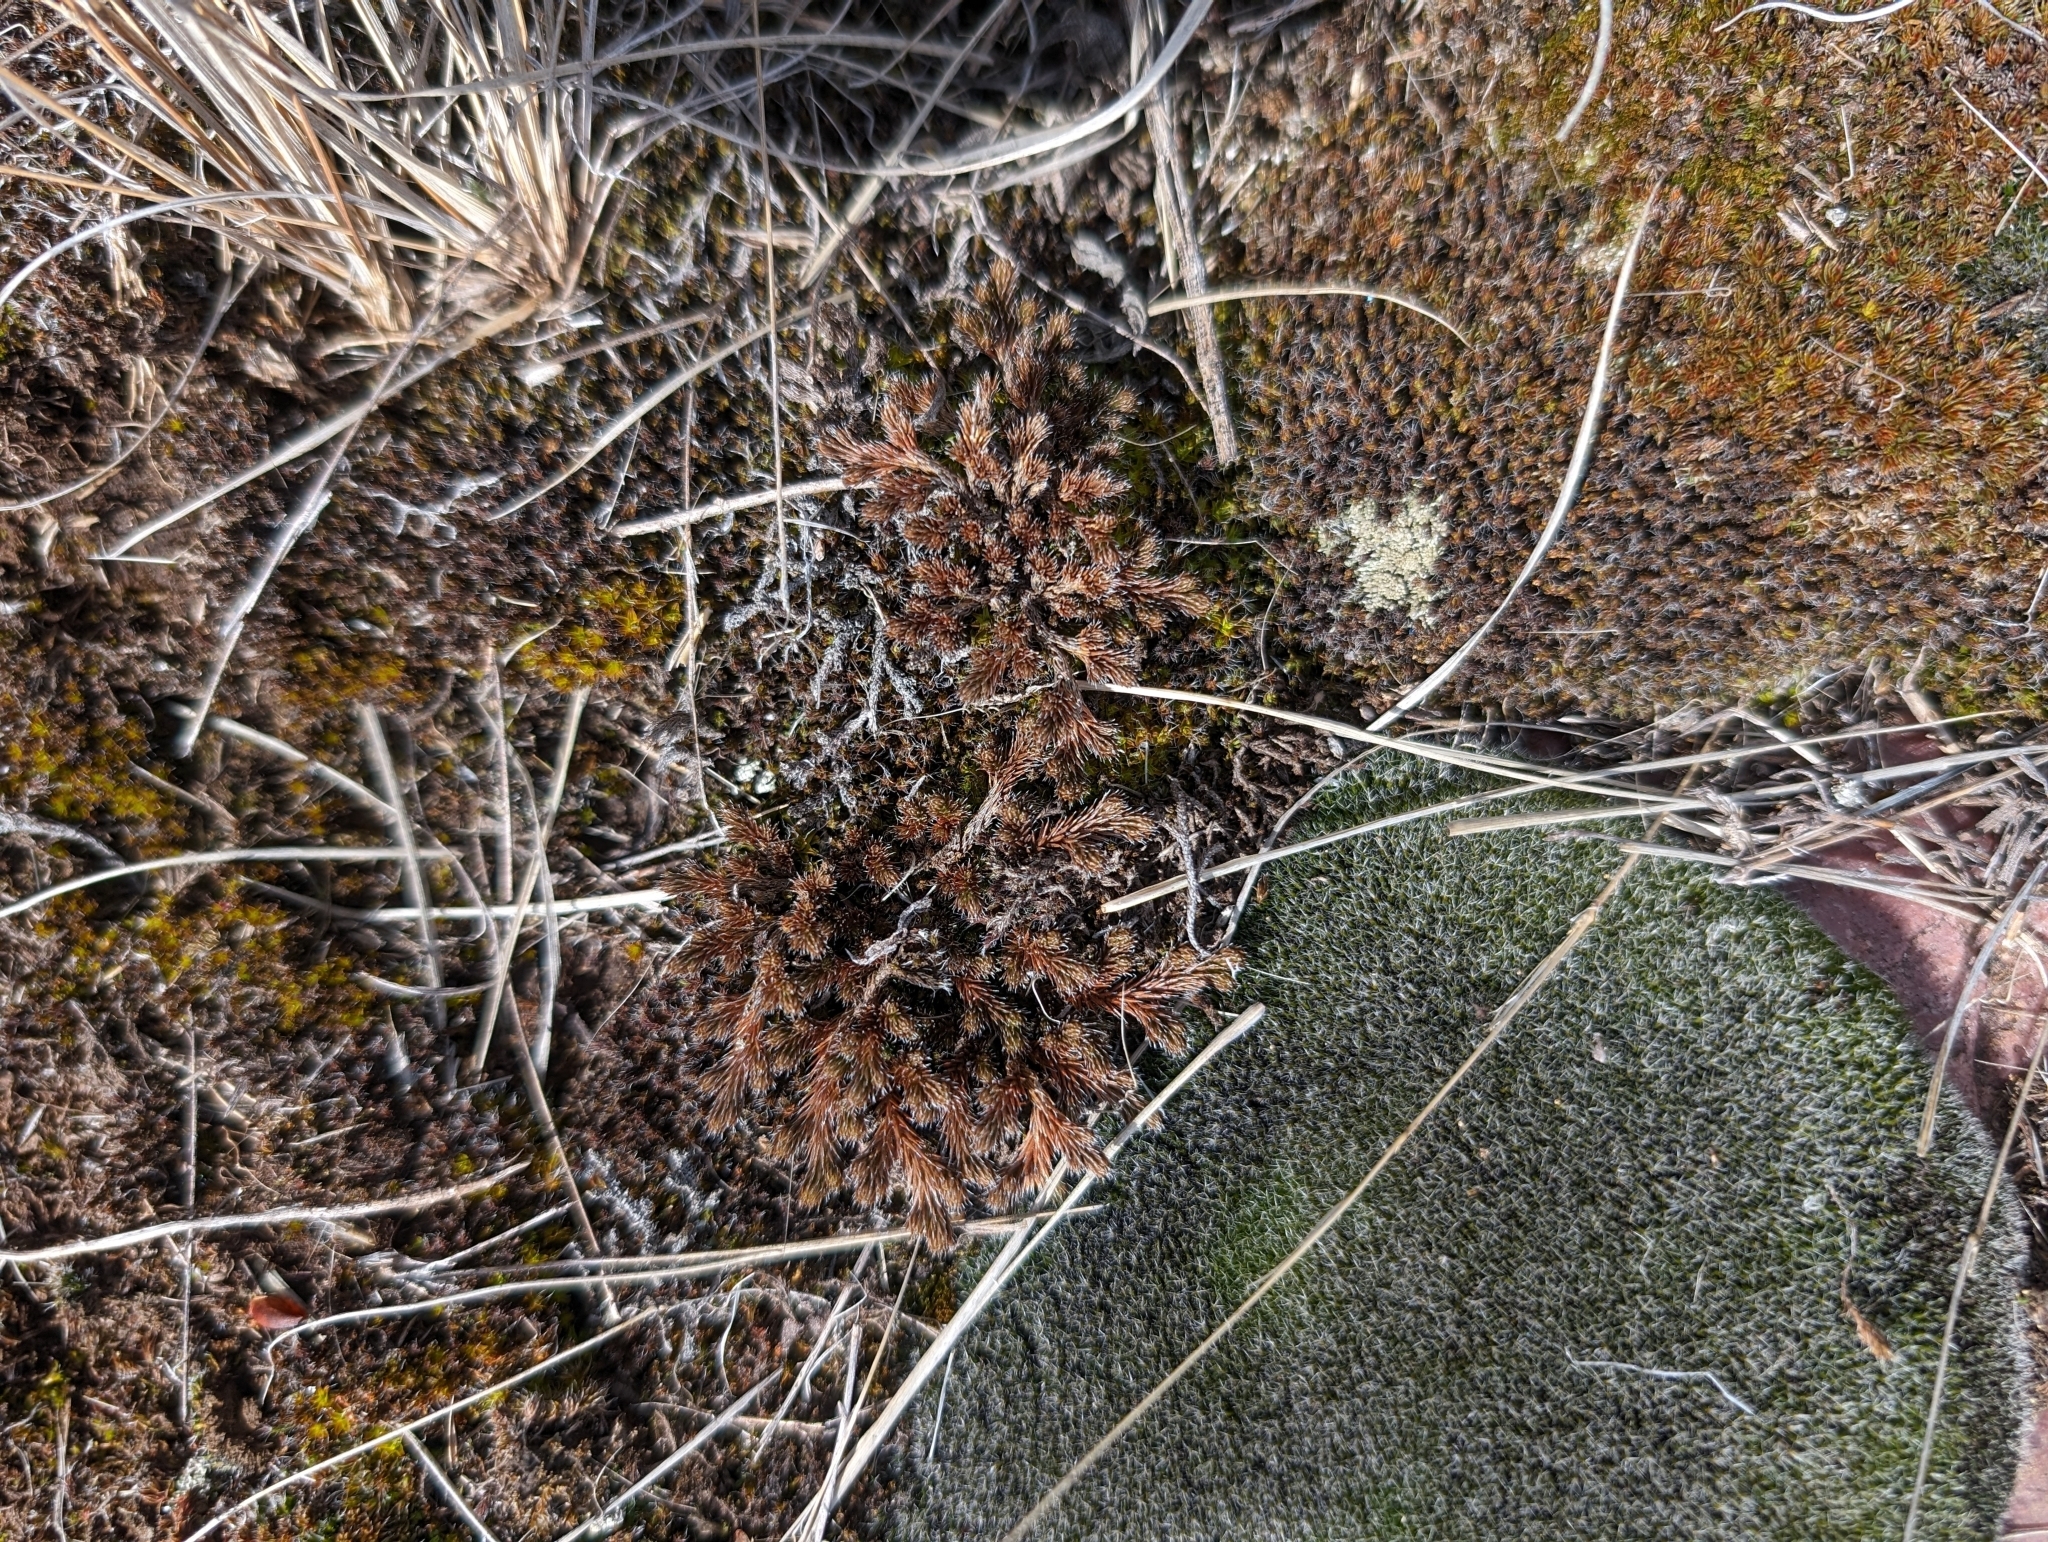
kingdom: Plantae
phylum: Tracheophyta
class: Lycopodiopsida
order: Selaginellales
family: Selaginellaceae
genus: Selaginella
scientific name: Selaginella rupestris
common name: Dwarf spikemoss
